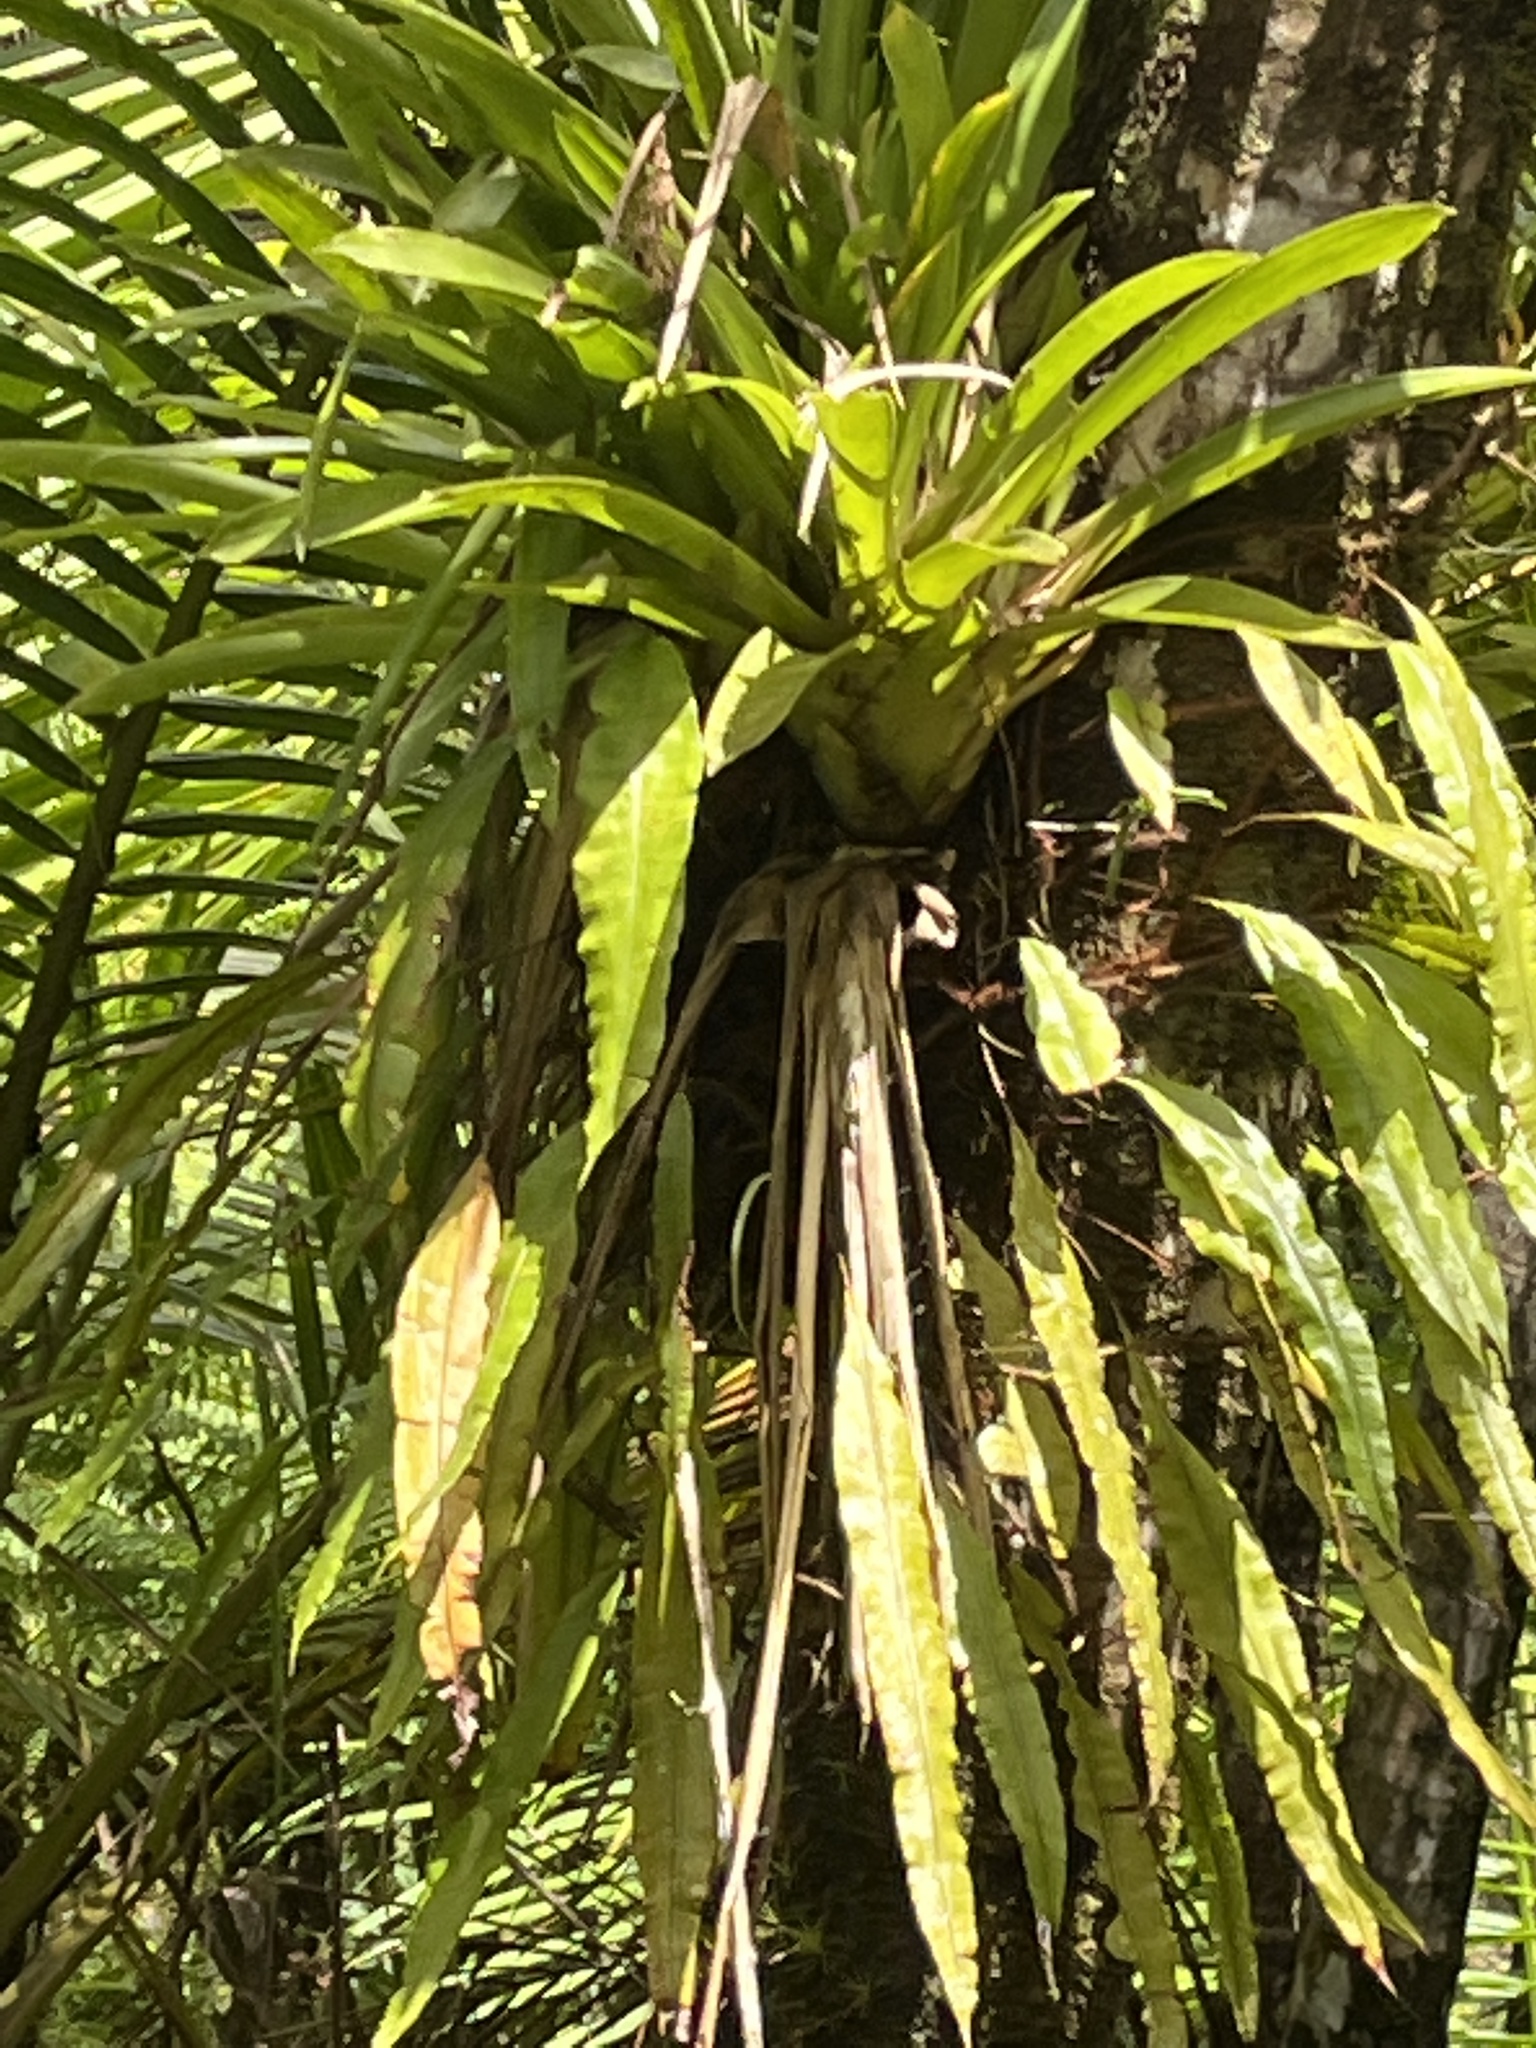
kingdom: Plantae
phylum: Tracheophyta
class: Polypodiopsida
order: Polypodiales
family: Oleandraceae
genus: Oleandra
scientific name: Oleandra articulata
